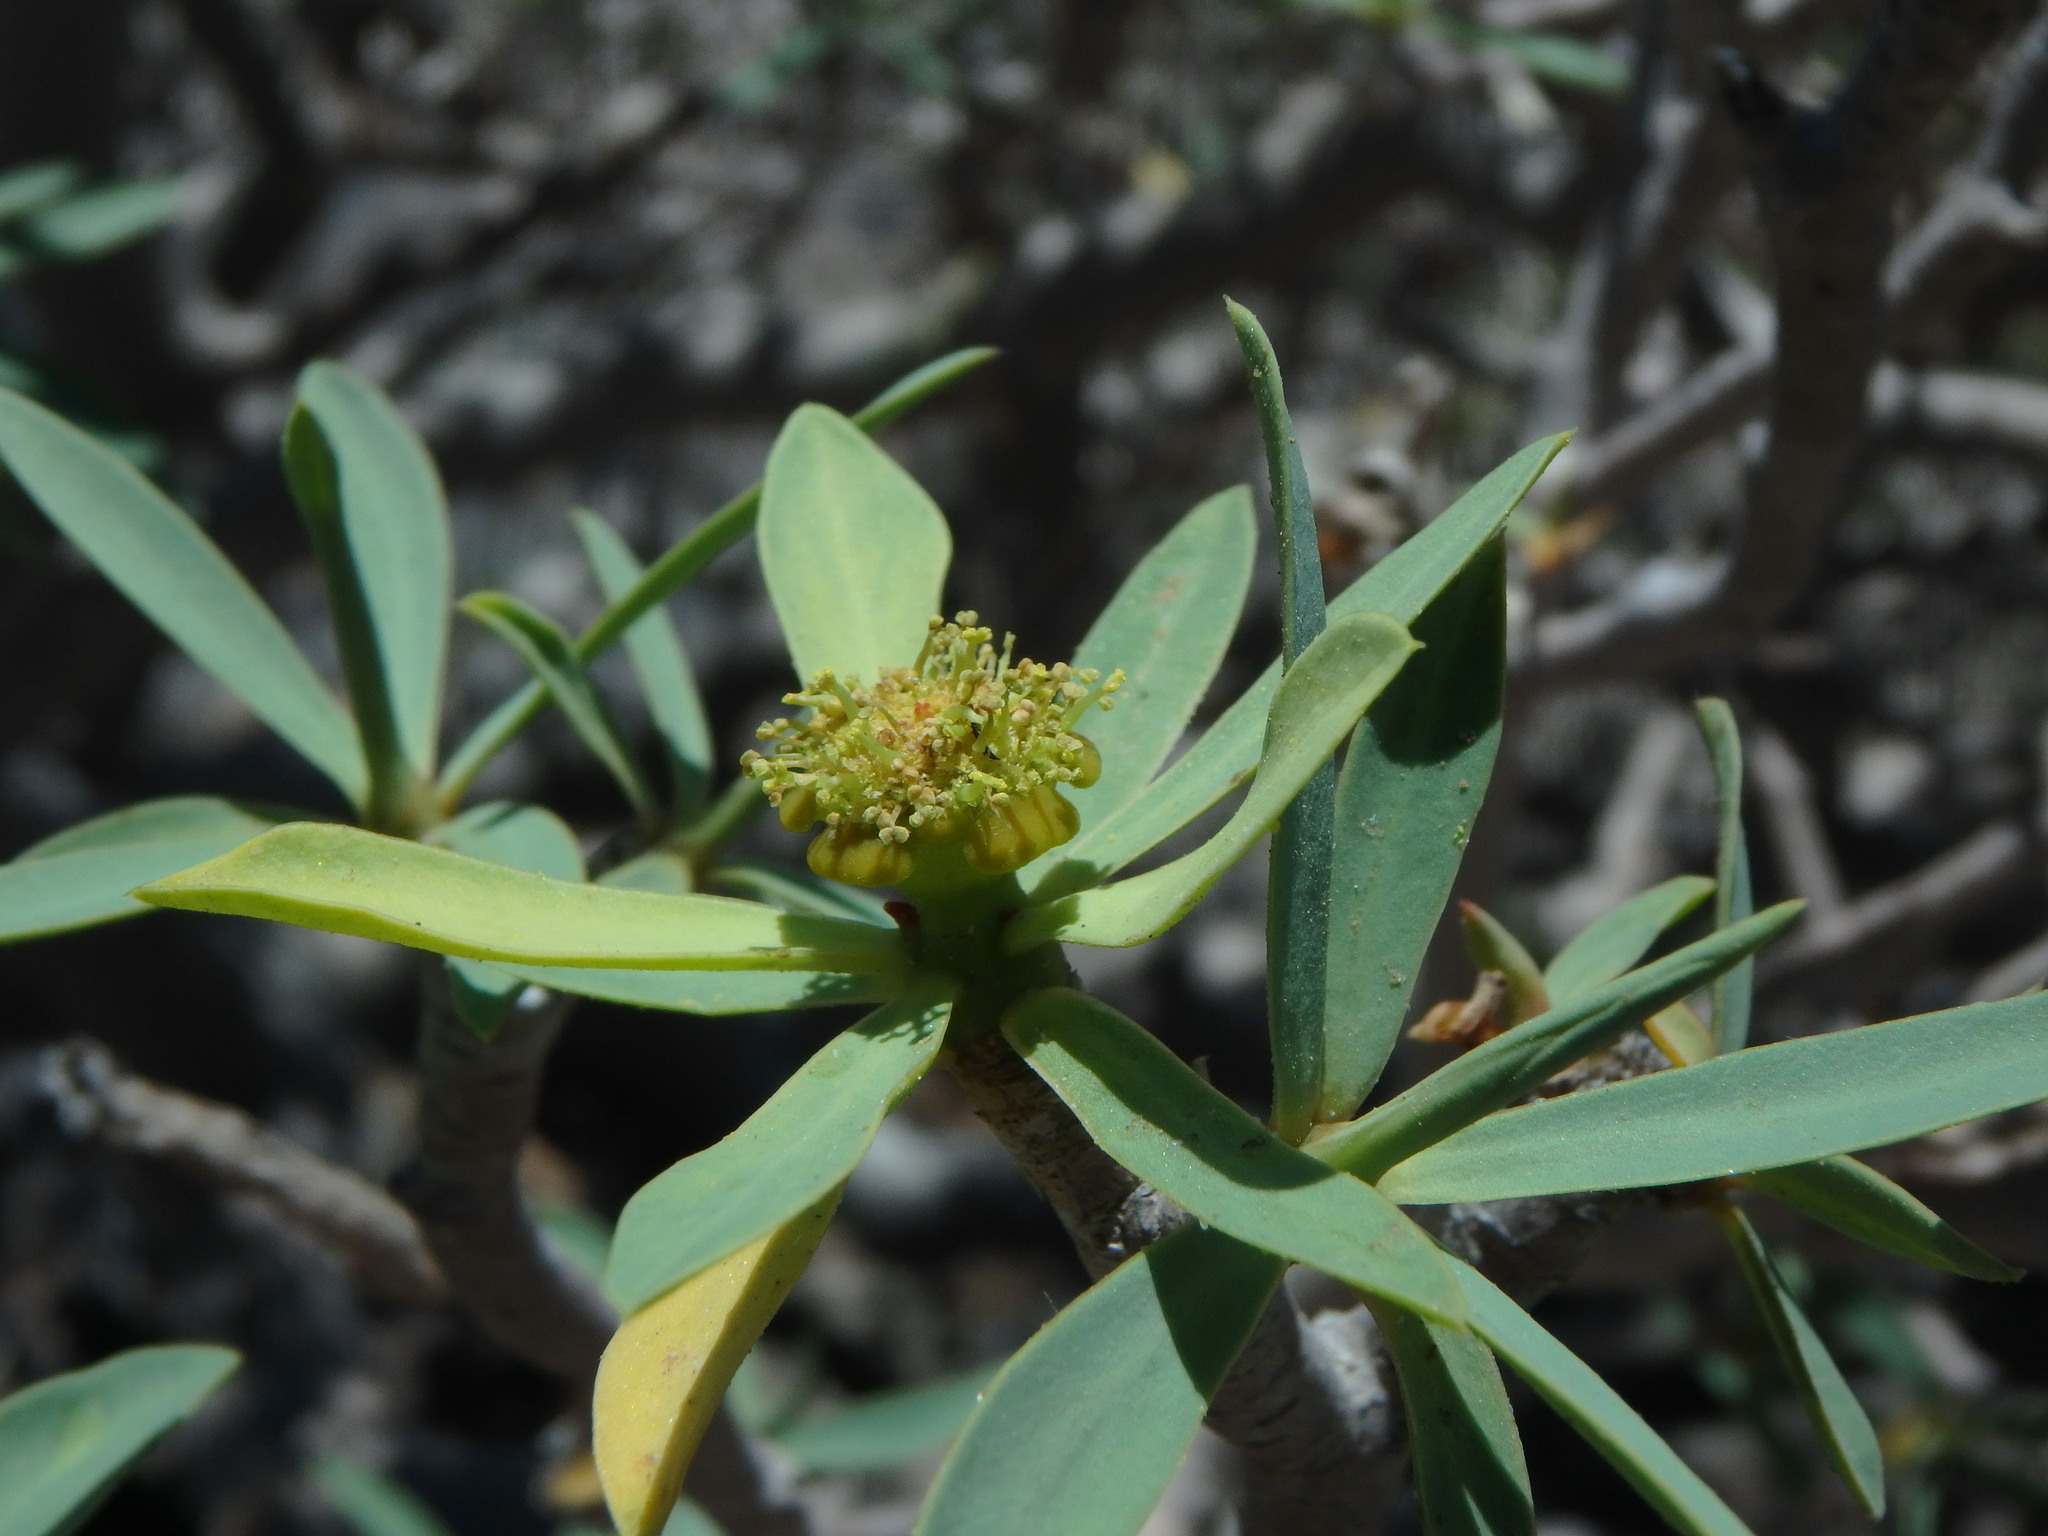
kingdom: Plantae
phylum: Tracheophyta
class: Magnoliopsida
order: Malpighiales
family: Euphorbiaceae
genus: Euphorbia
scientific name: Euphorbia balsamifera
